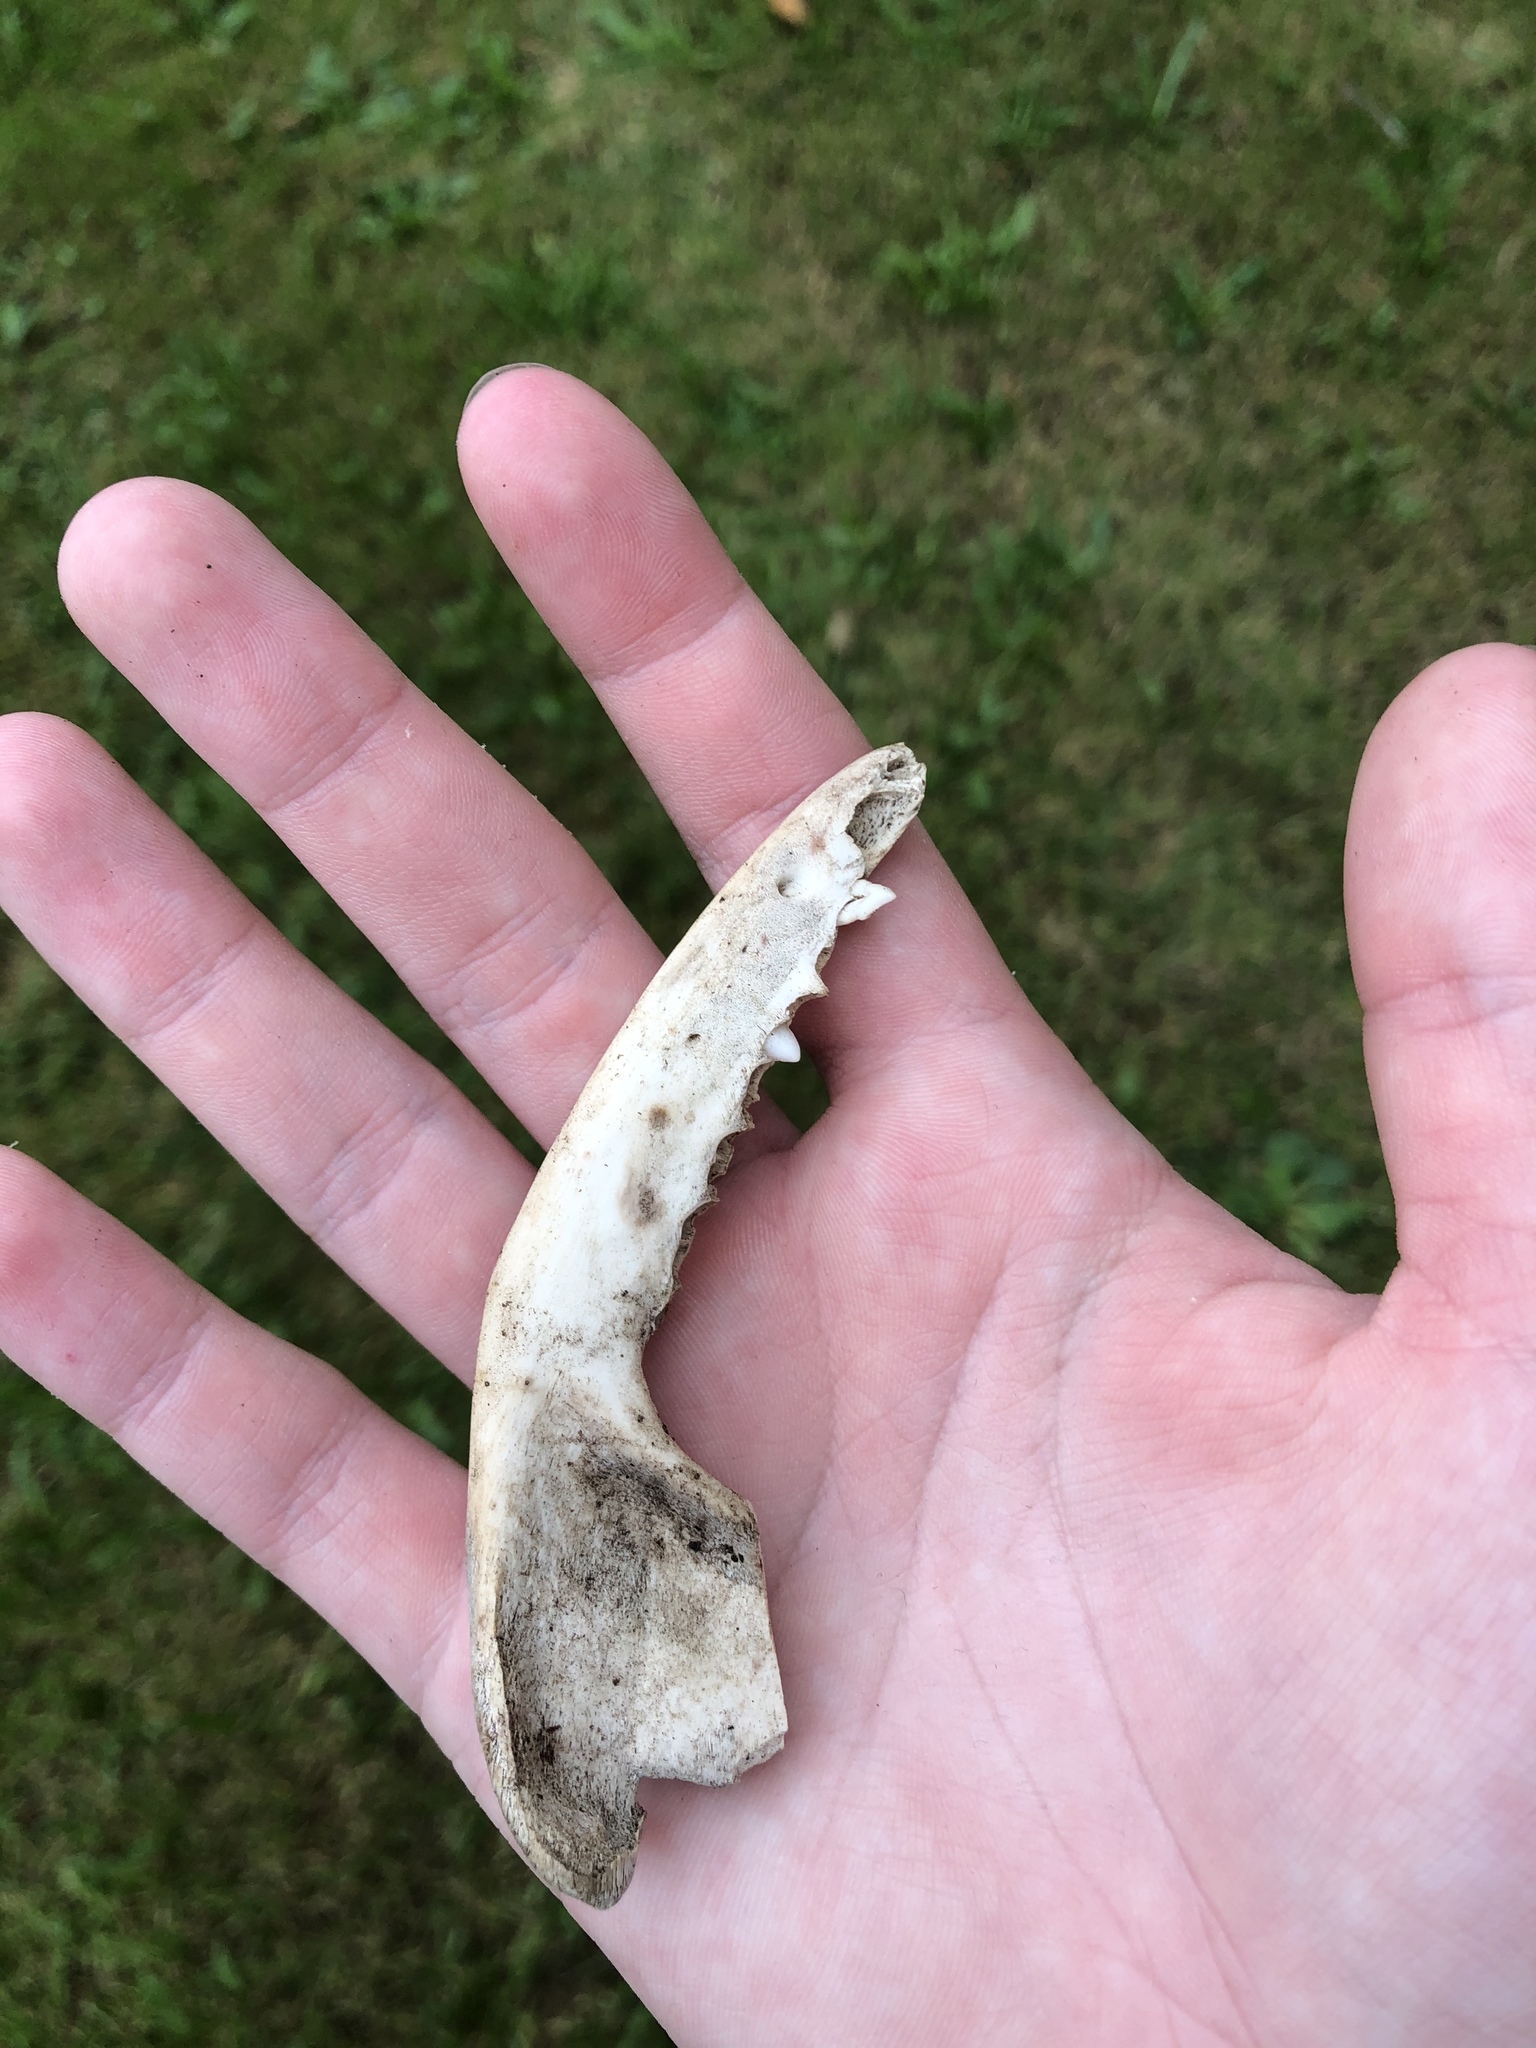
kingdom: Animalia
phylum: Chordata
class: Mammalia
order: Didelphimorphia
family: Didelphidae
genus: Didelphis
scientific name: Didelphis virginiana
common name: Virginia opossum
